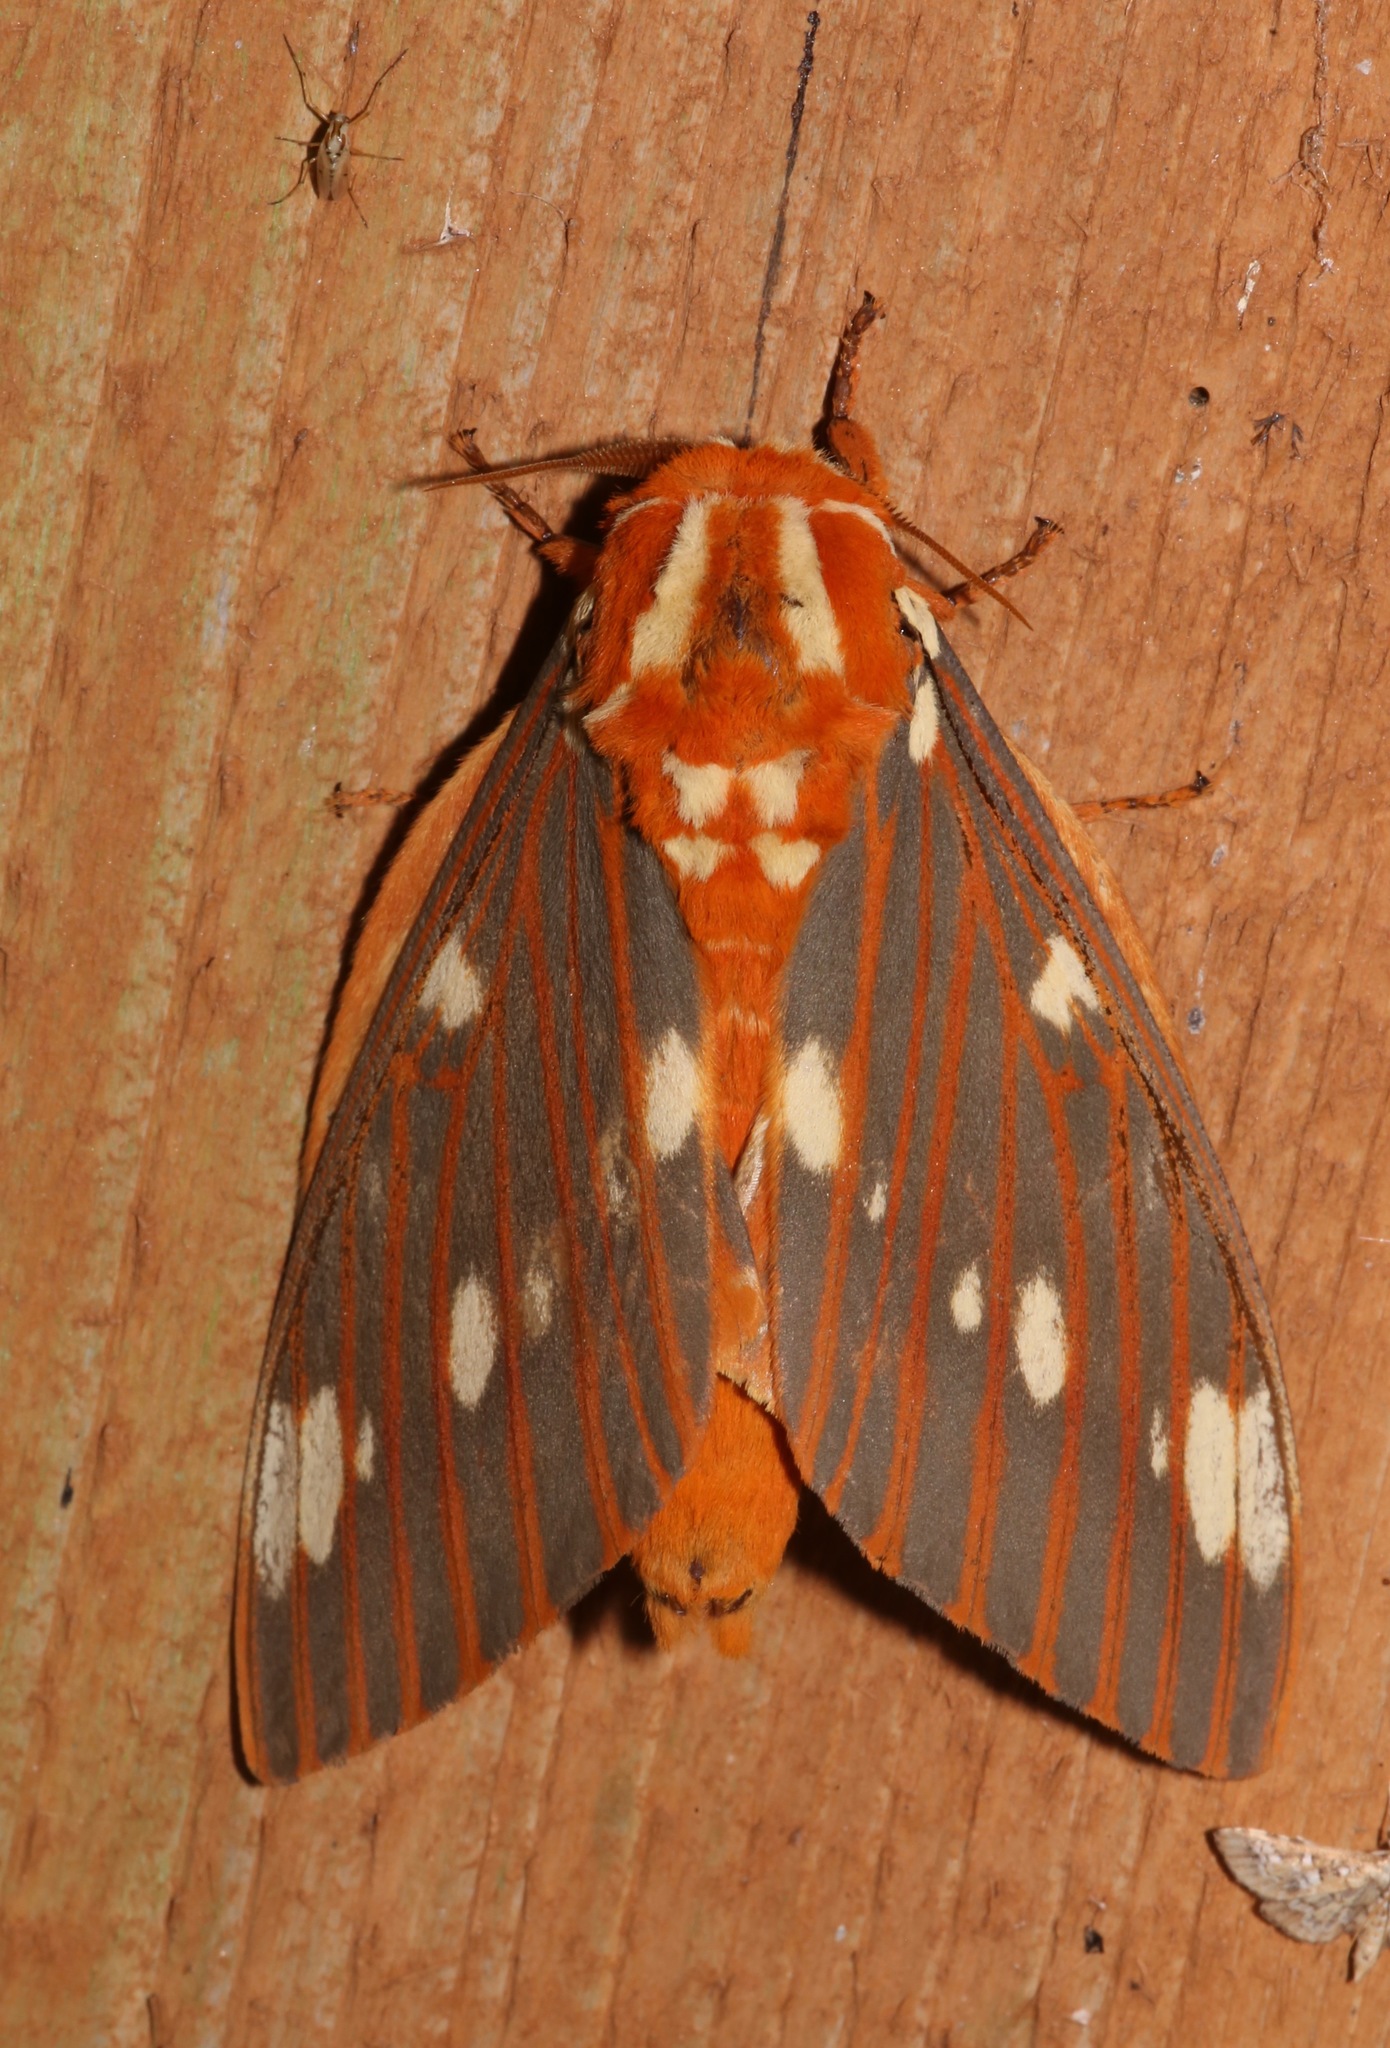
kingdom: Animalia
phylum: Arthropoda
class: Insecta
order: Lepidoptera
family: Saturniidae
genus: Citheronia
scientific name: Citheronia regalis
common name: Hickory horned devil
